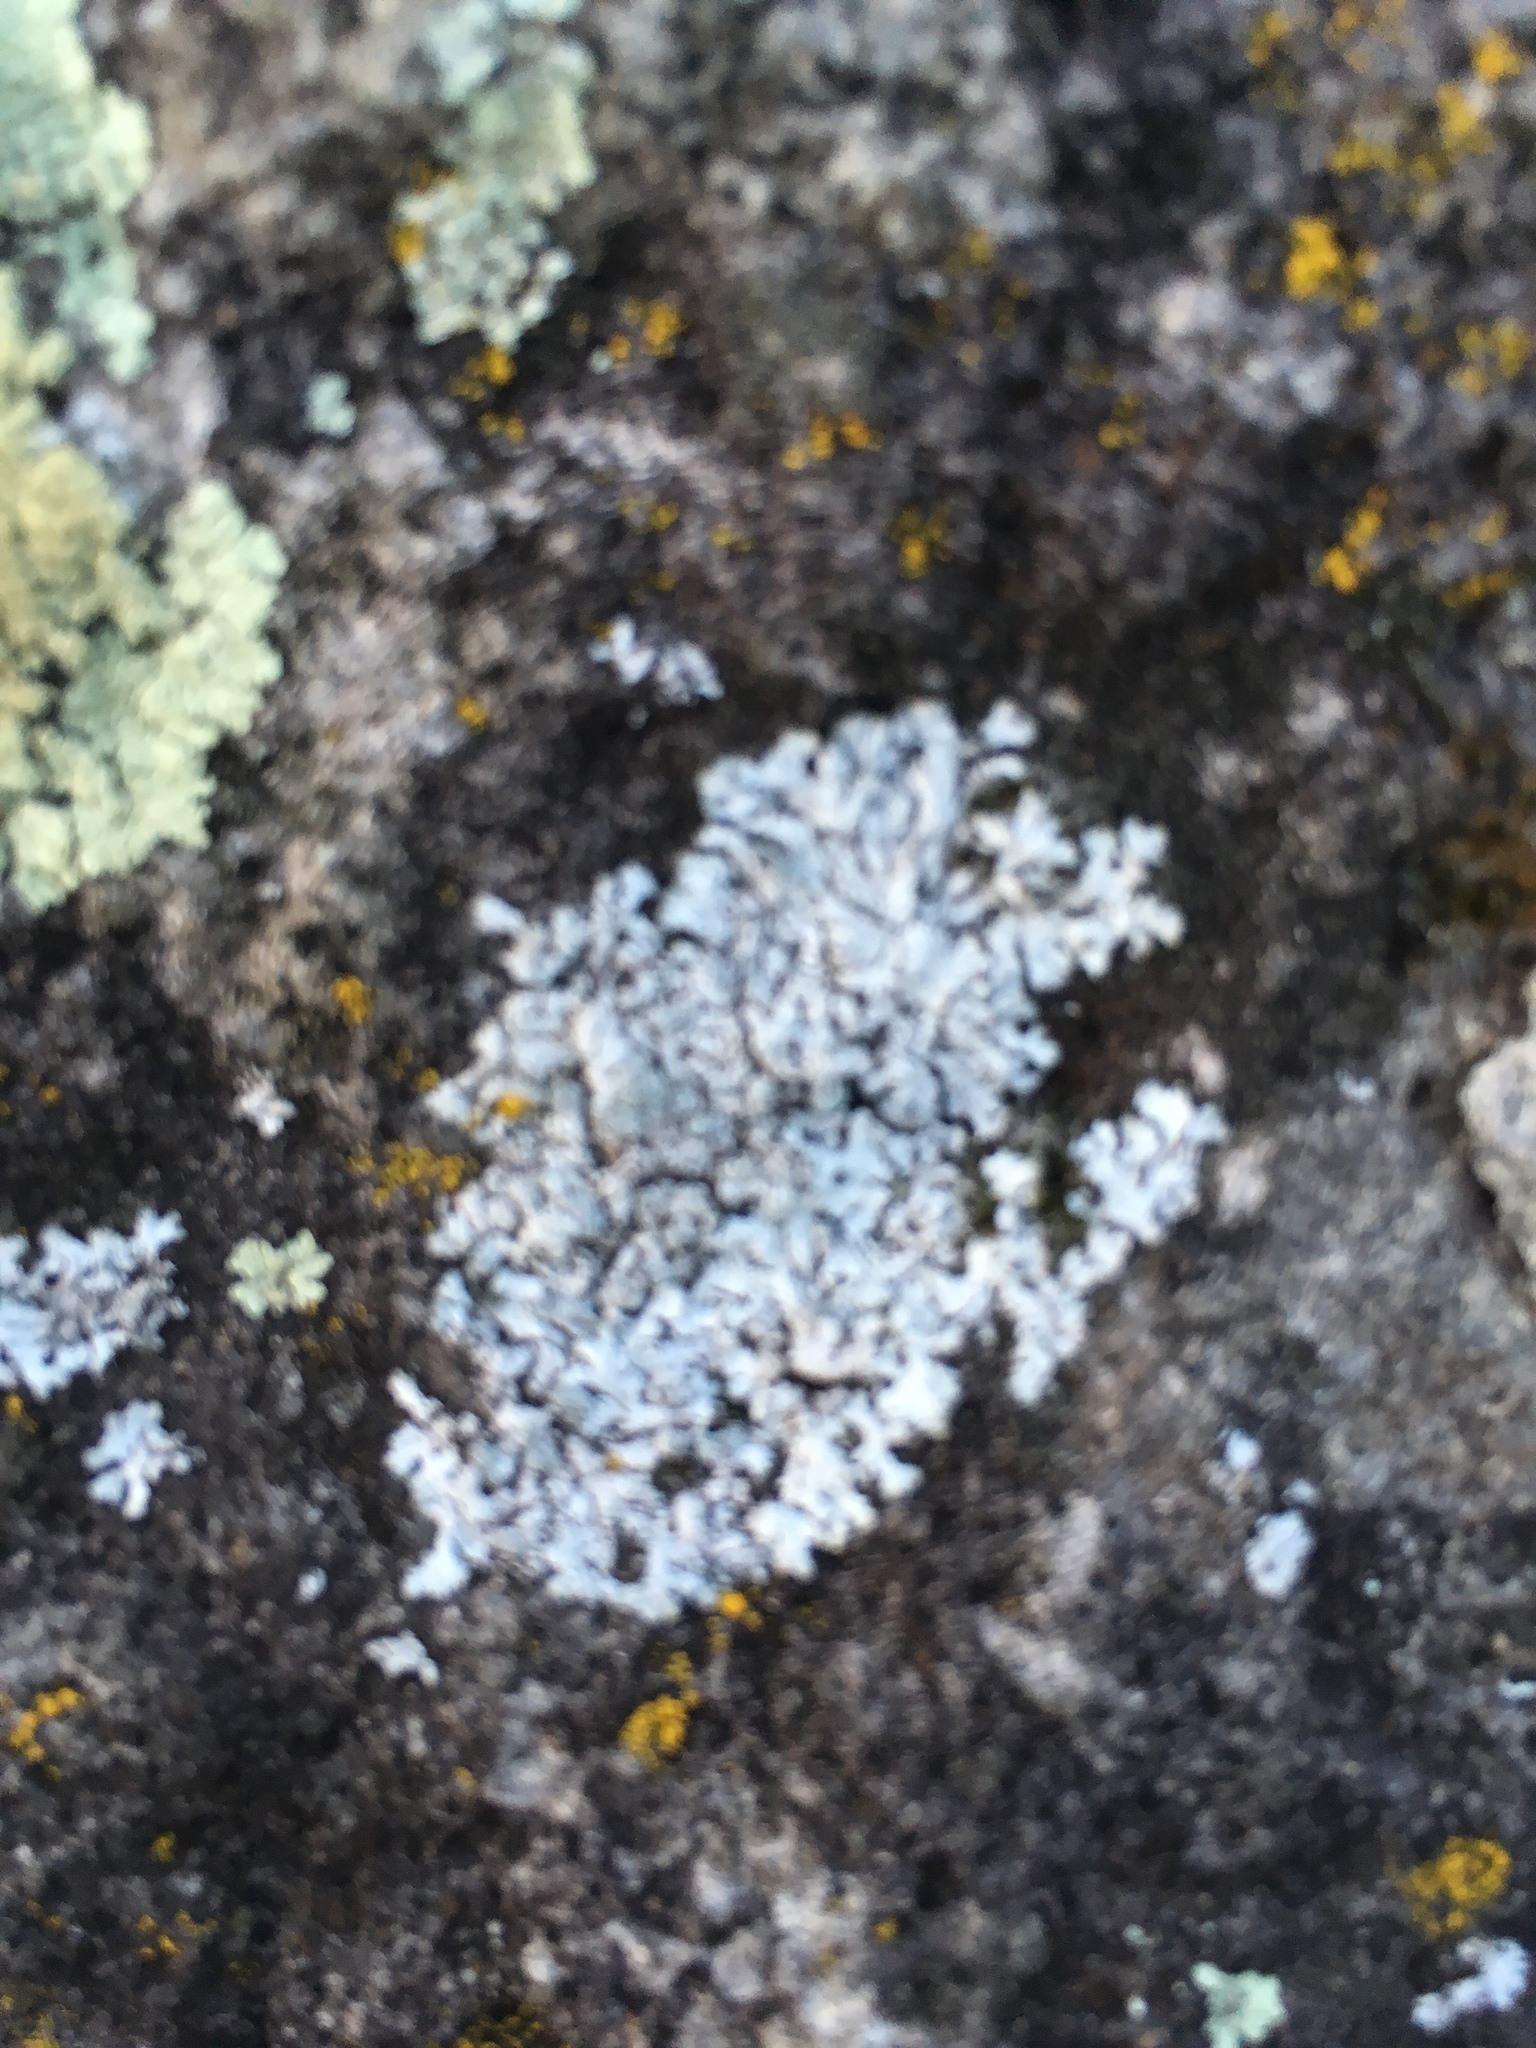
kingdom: Fungi
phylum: Ascomycota
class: Lecanoromycetes
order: Caliciales
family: Physciaceae
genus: Physcia
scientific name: Physcia caesia
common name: Blue-gray rosette lichen
